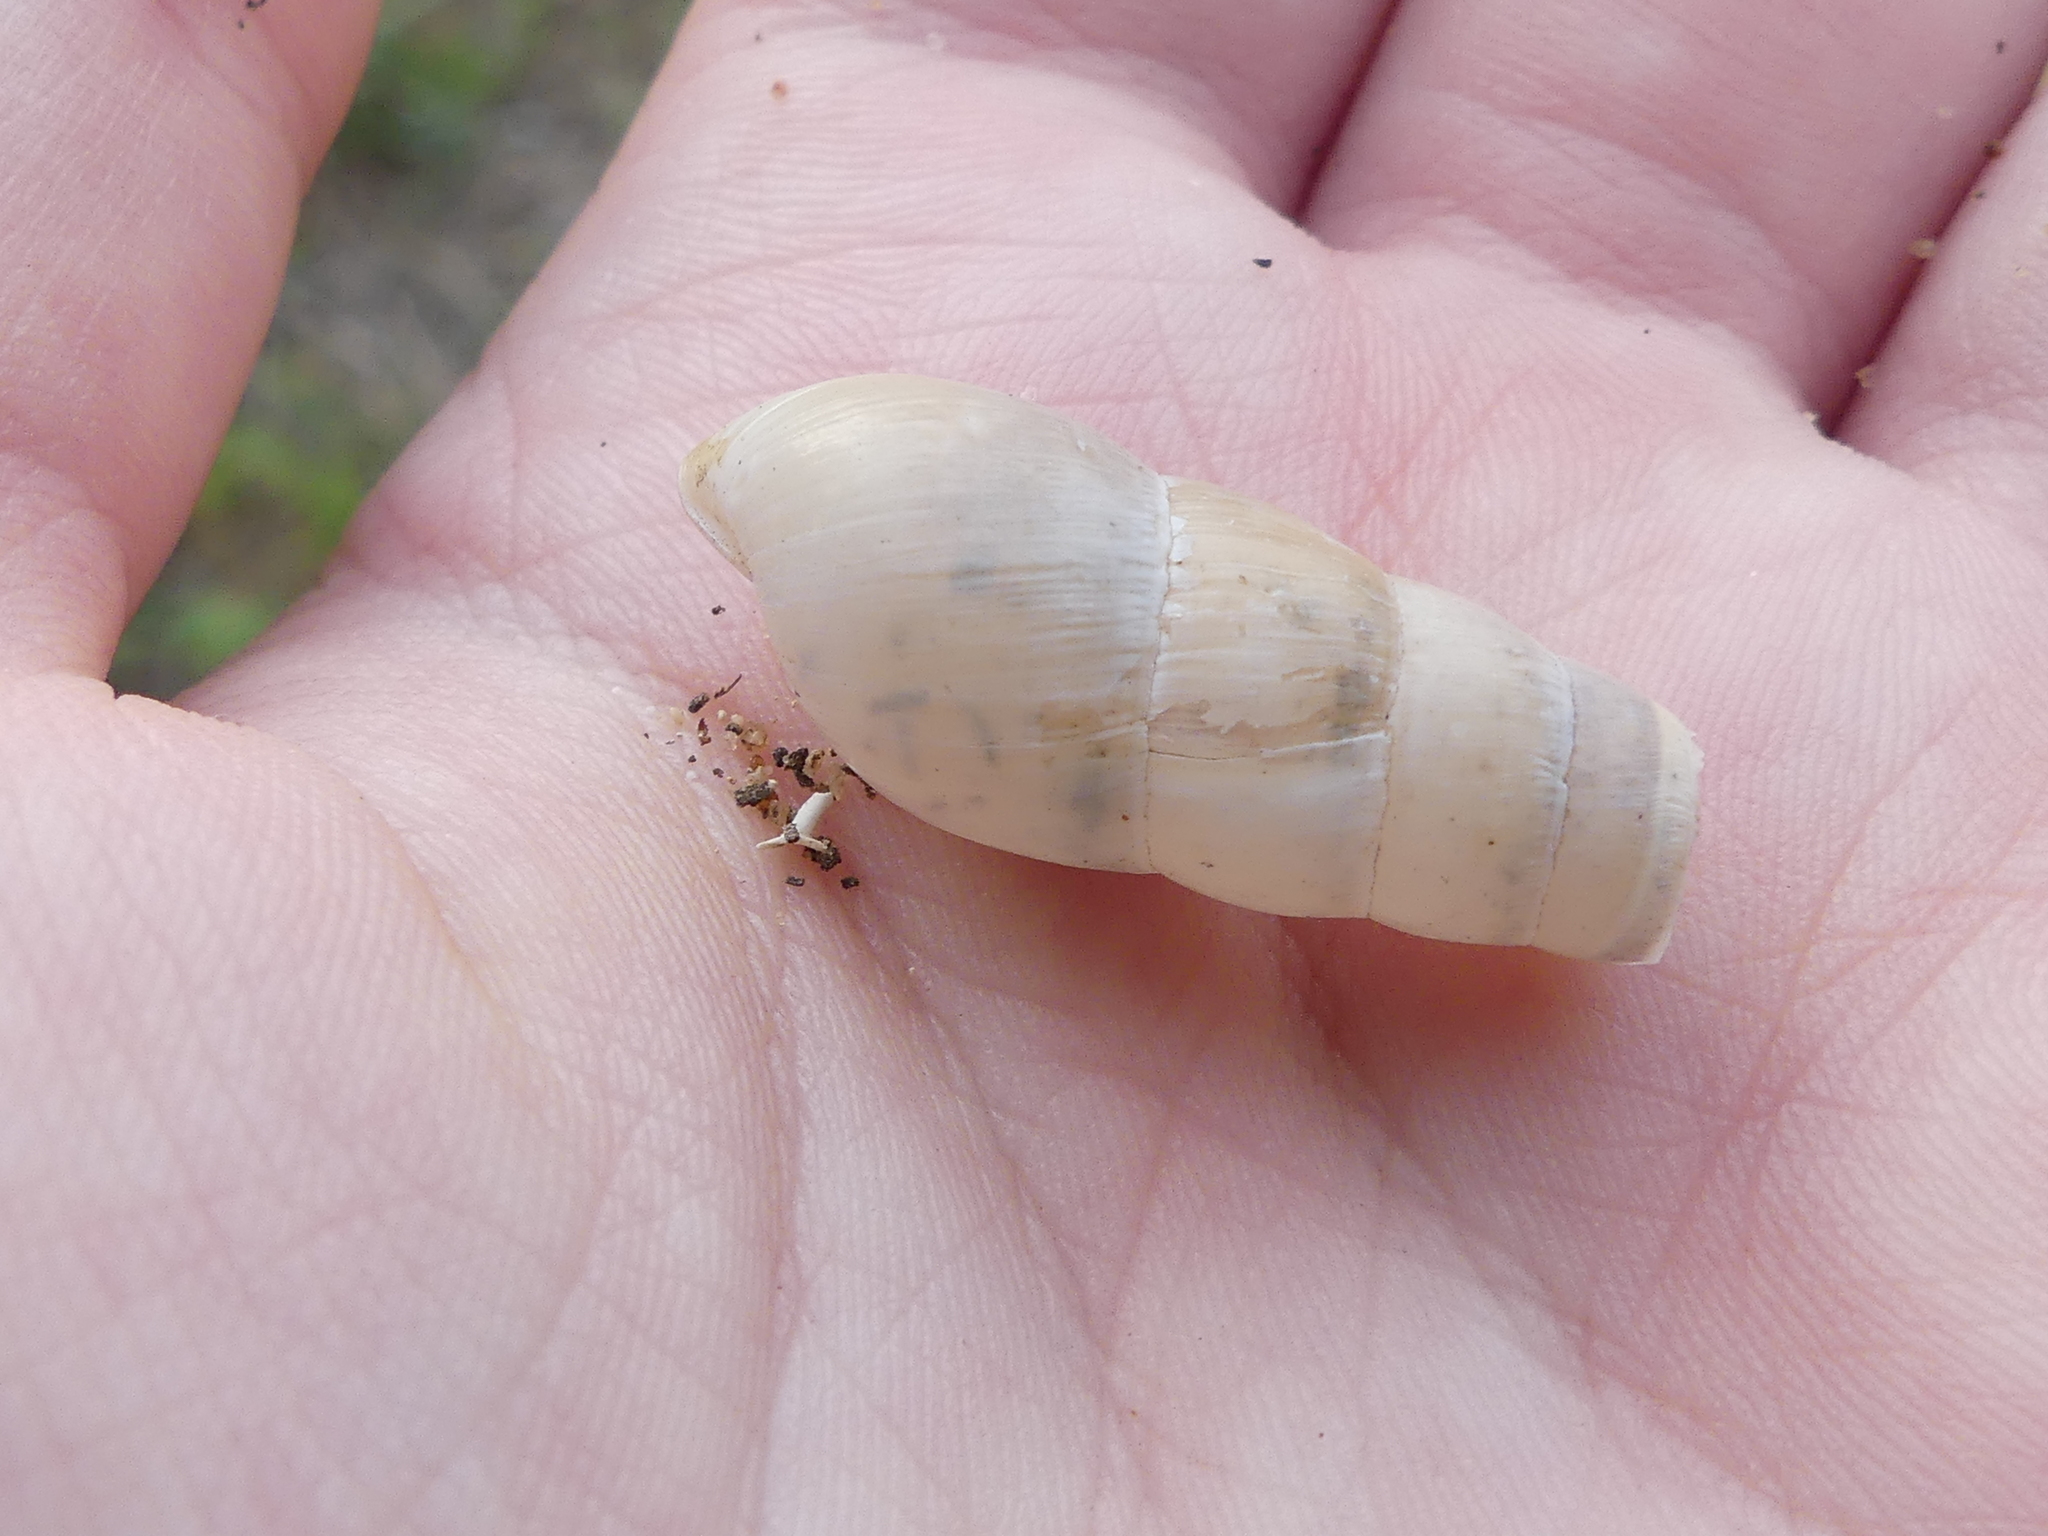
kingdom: Animalia
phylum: Mollusca
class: Gastropoda
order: Stylommatophora
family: Achatinidae
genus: Rumina
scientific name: Rumina decollata
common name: Decollate snail
